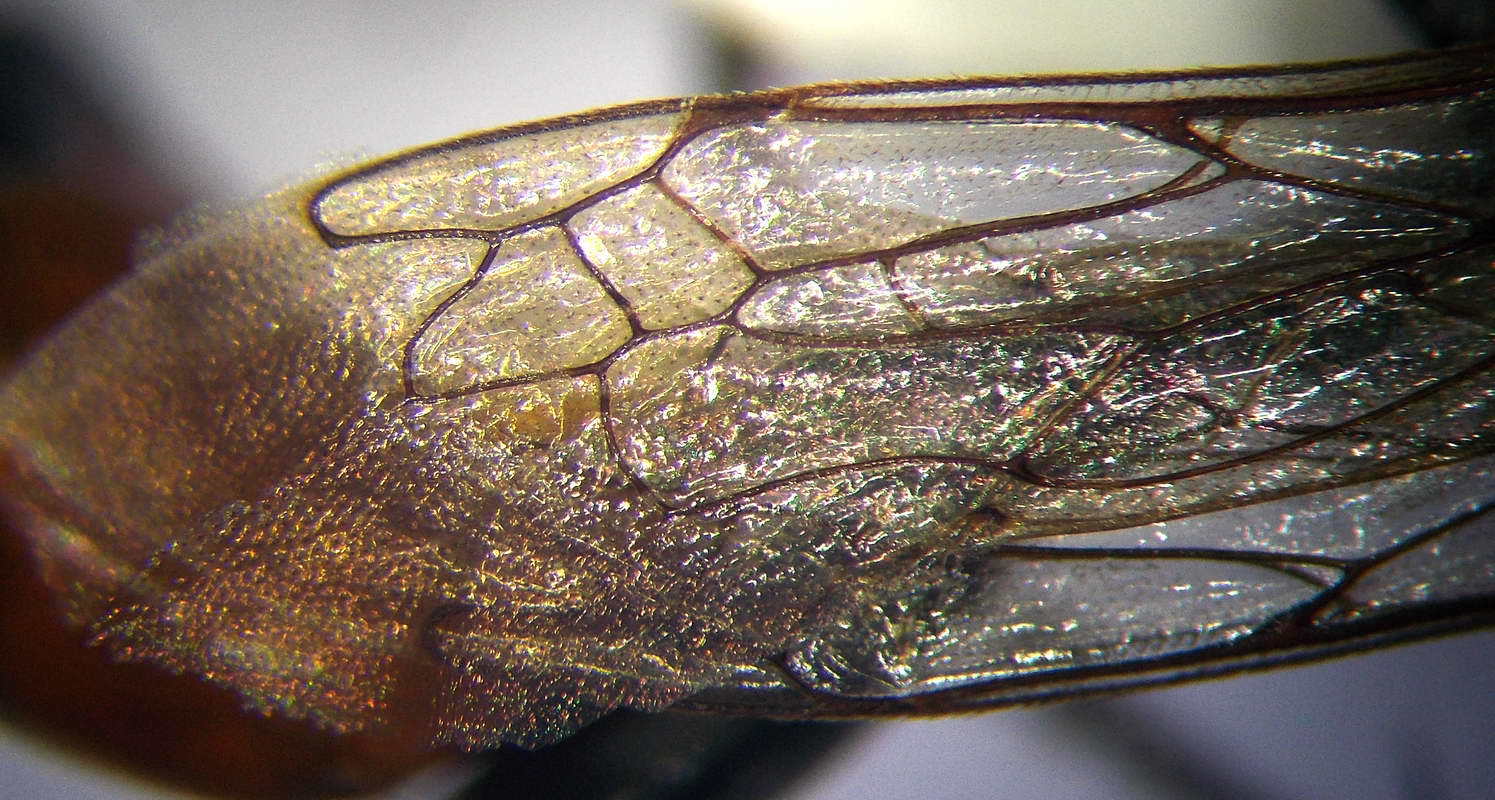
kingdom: Animalia
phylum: Arthropoda
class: Insecta
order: Hymenoptera
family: Sphecidae
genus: Prionyx
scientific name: Prionyx kirbii
